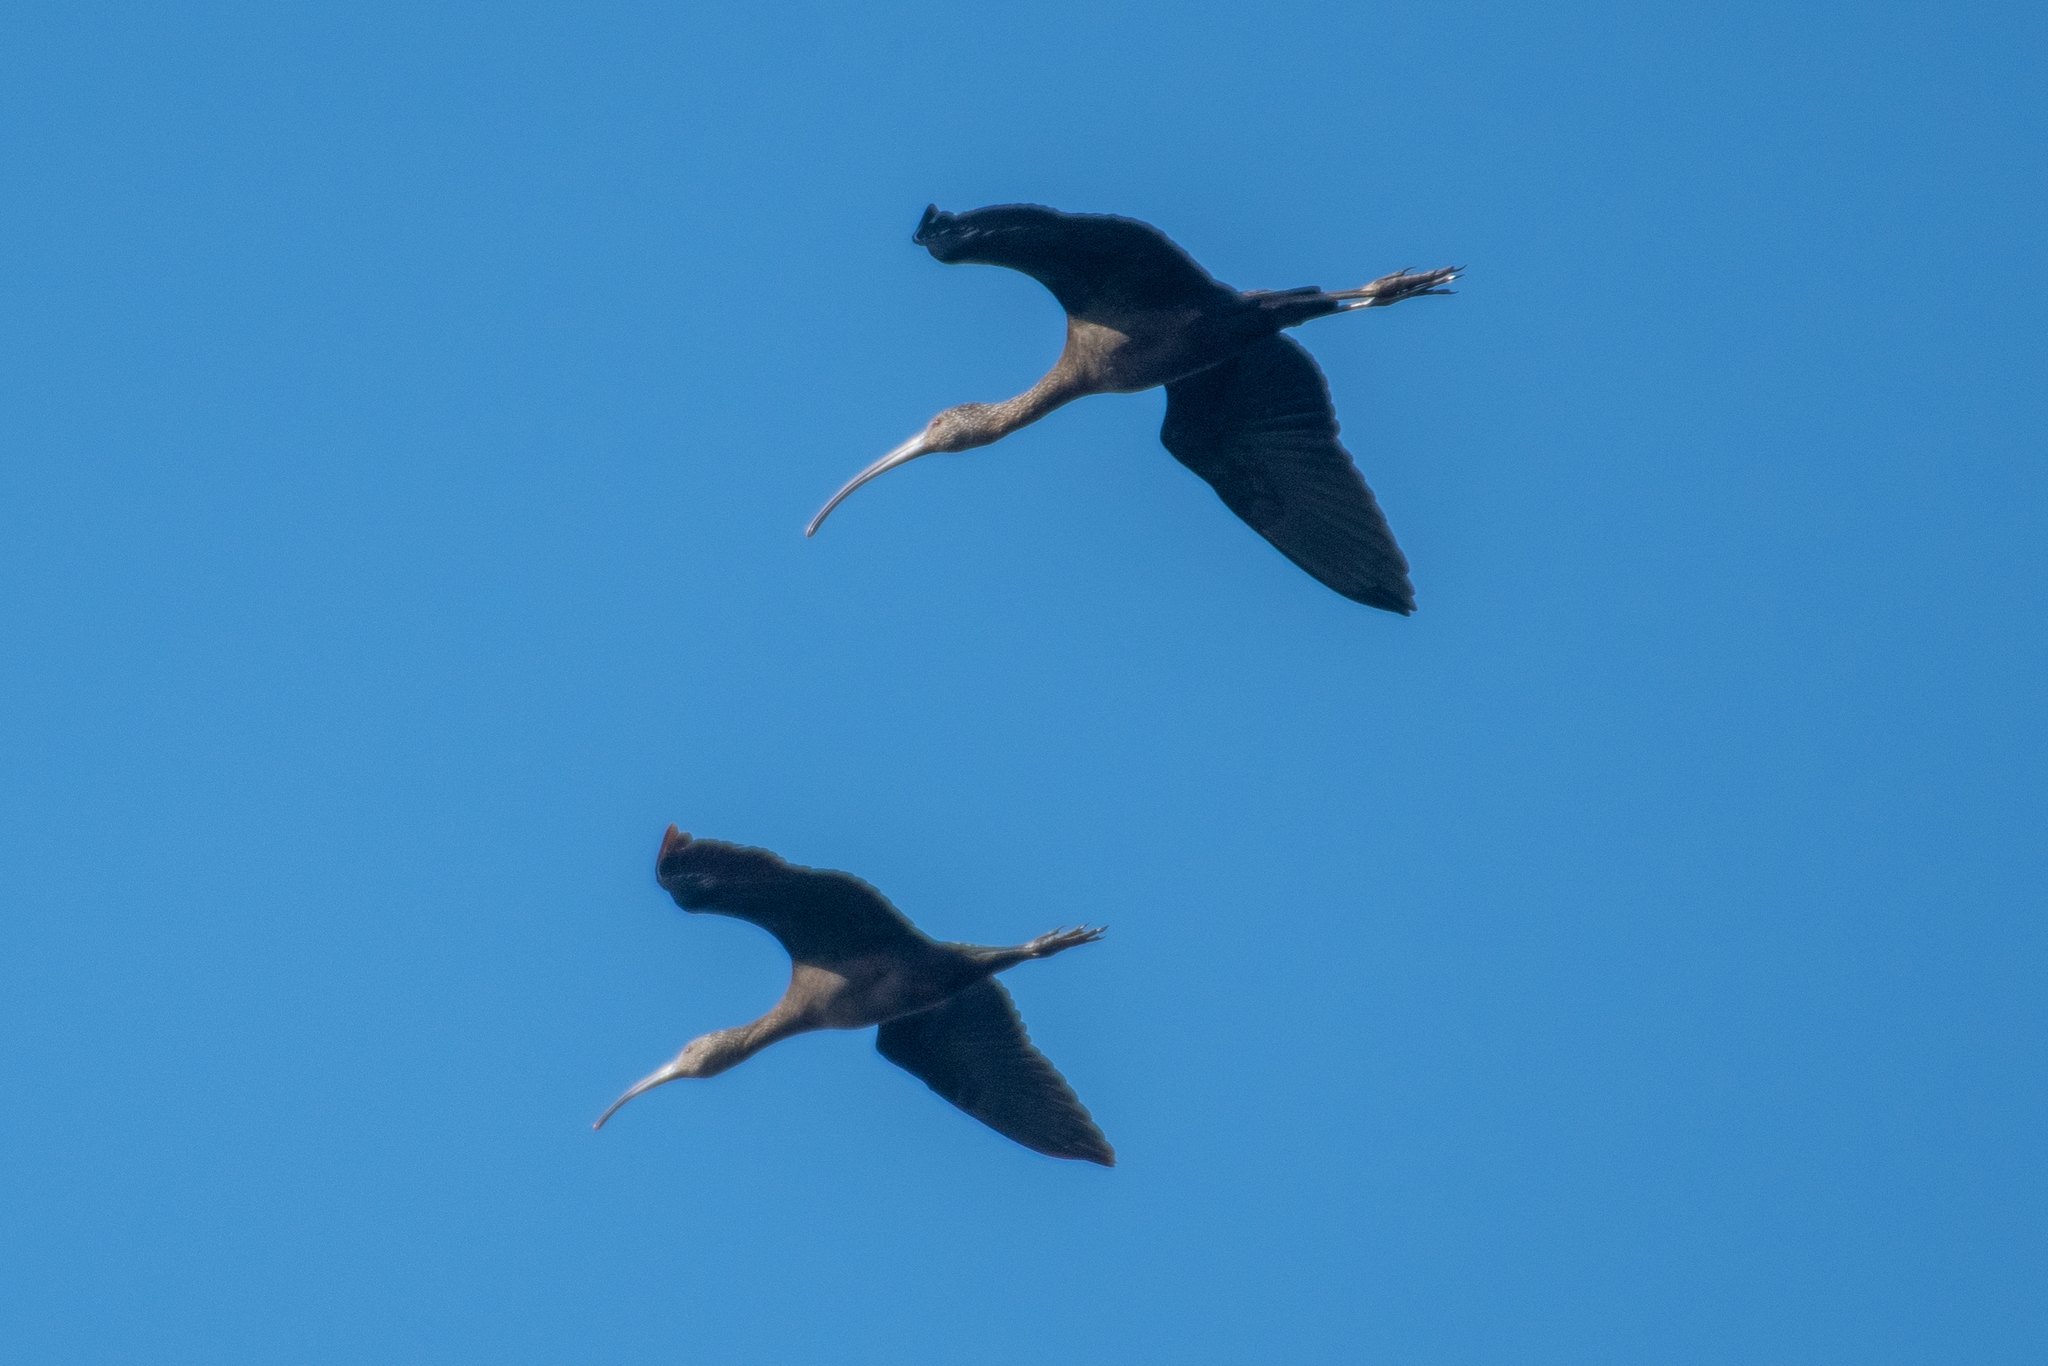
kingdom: Animalia
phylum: Chordata
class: Aves
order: Pelecaniformes
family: Threskiornithidae
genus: Plegadis
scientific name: Plegadis chihi
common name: White-faced ibis
